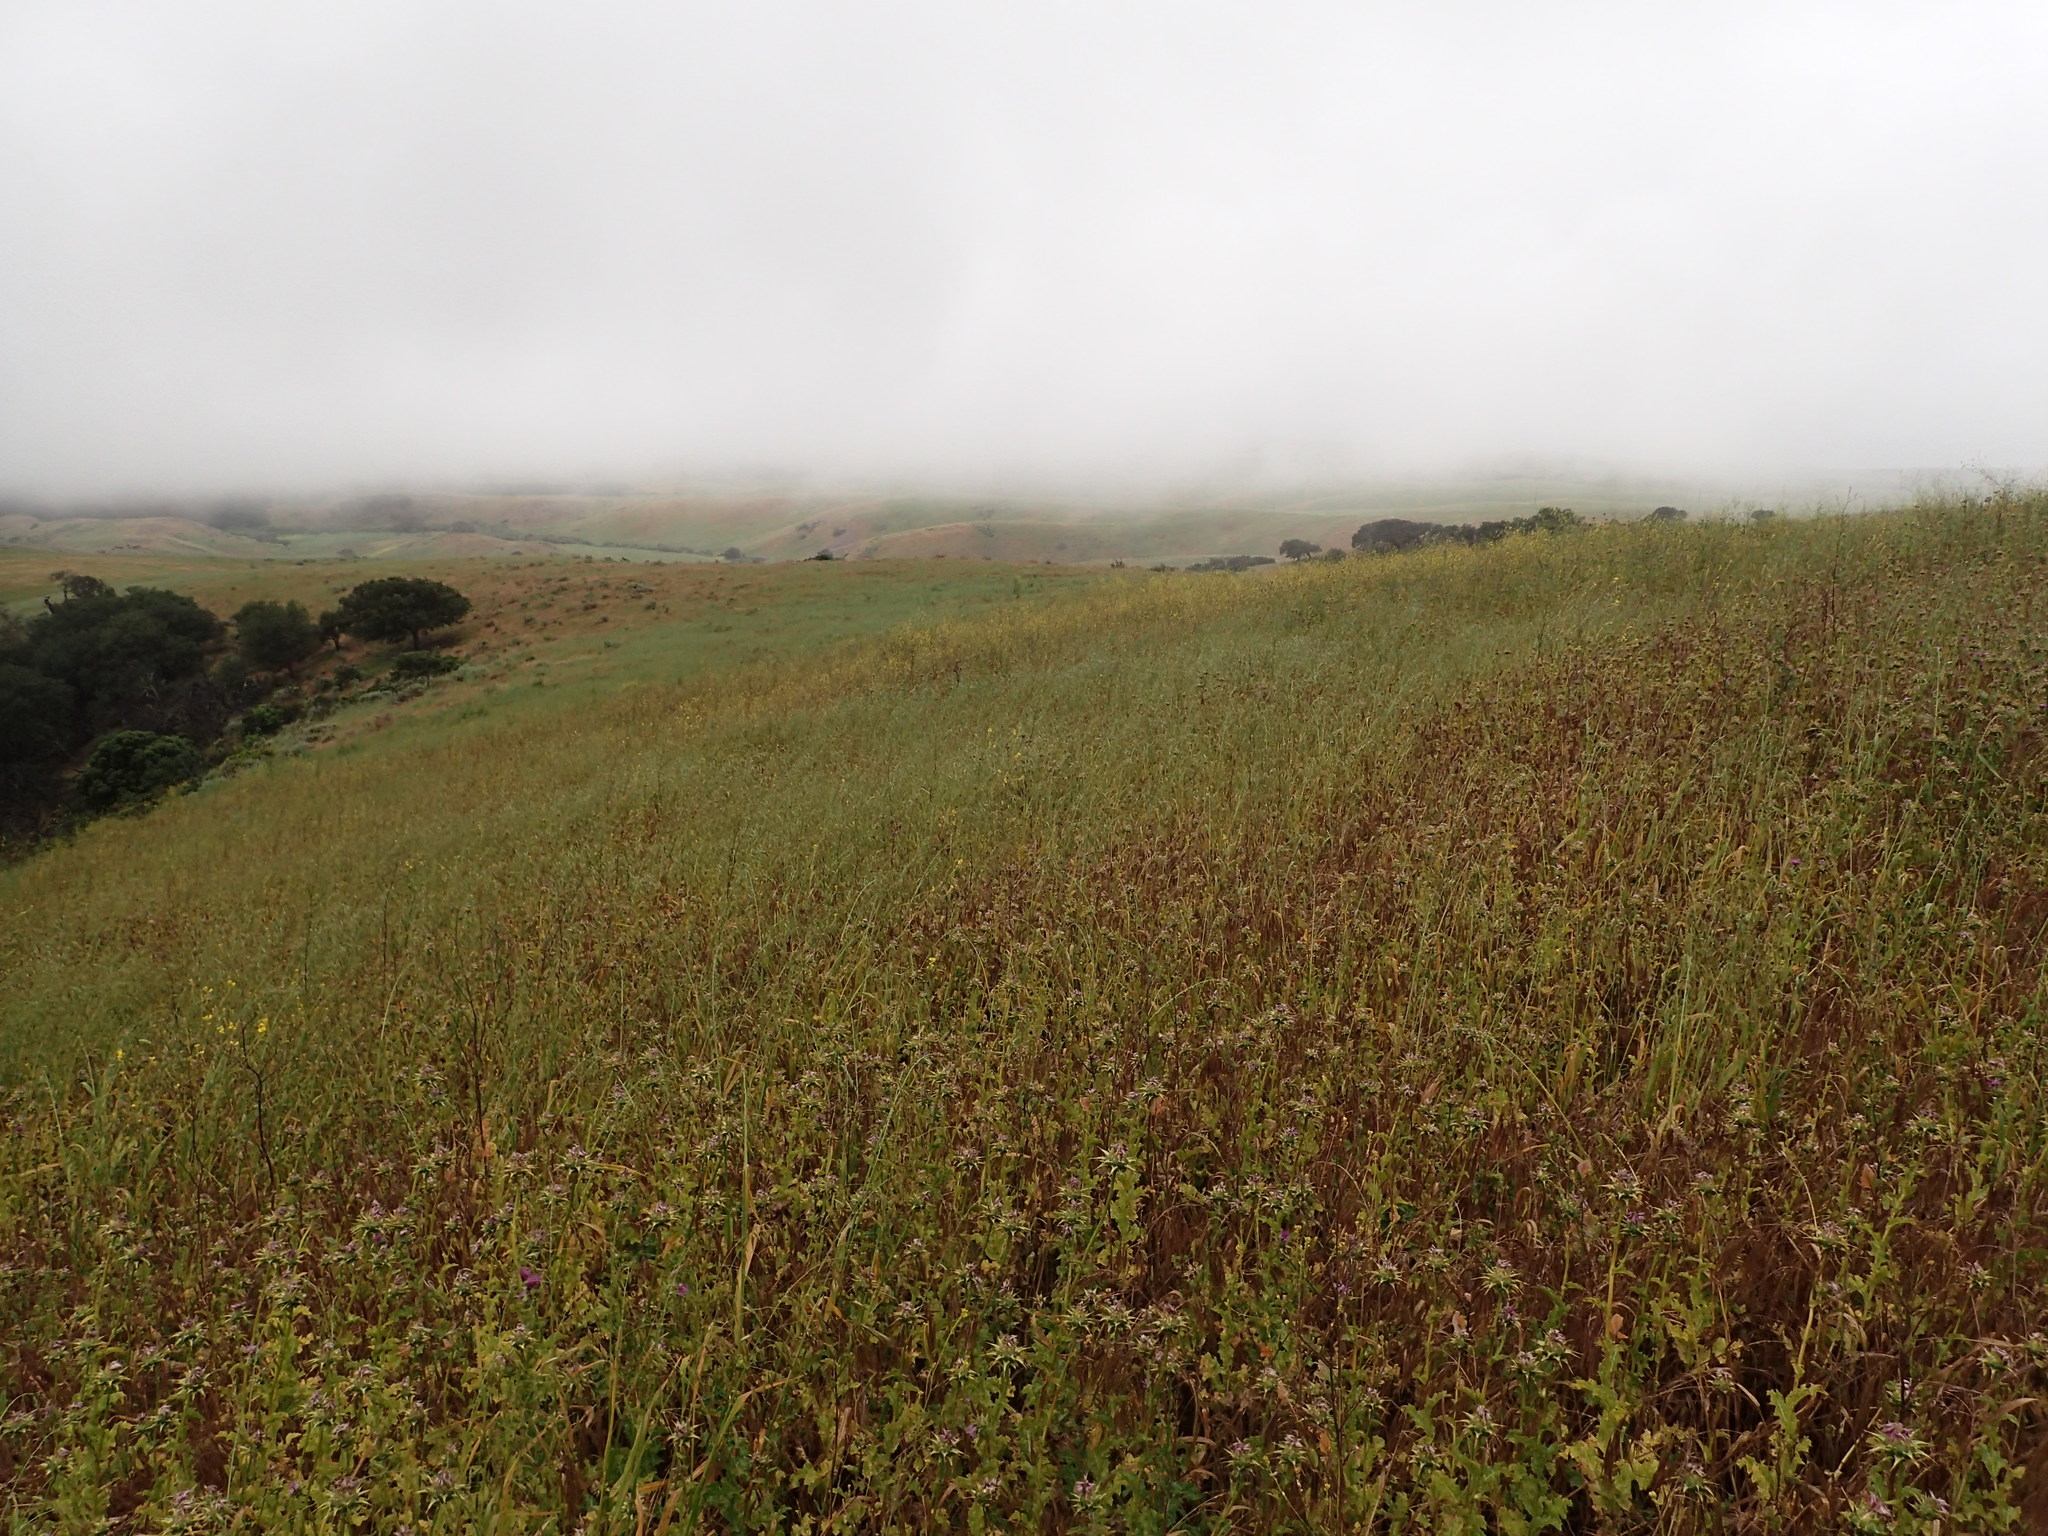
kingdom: Plantae
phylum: Tracheophyta
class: Magnoliopsida
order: Asterales
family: Asteraceae
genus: Silybum
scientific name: Silybum marianum
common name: Milk thistle
